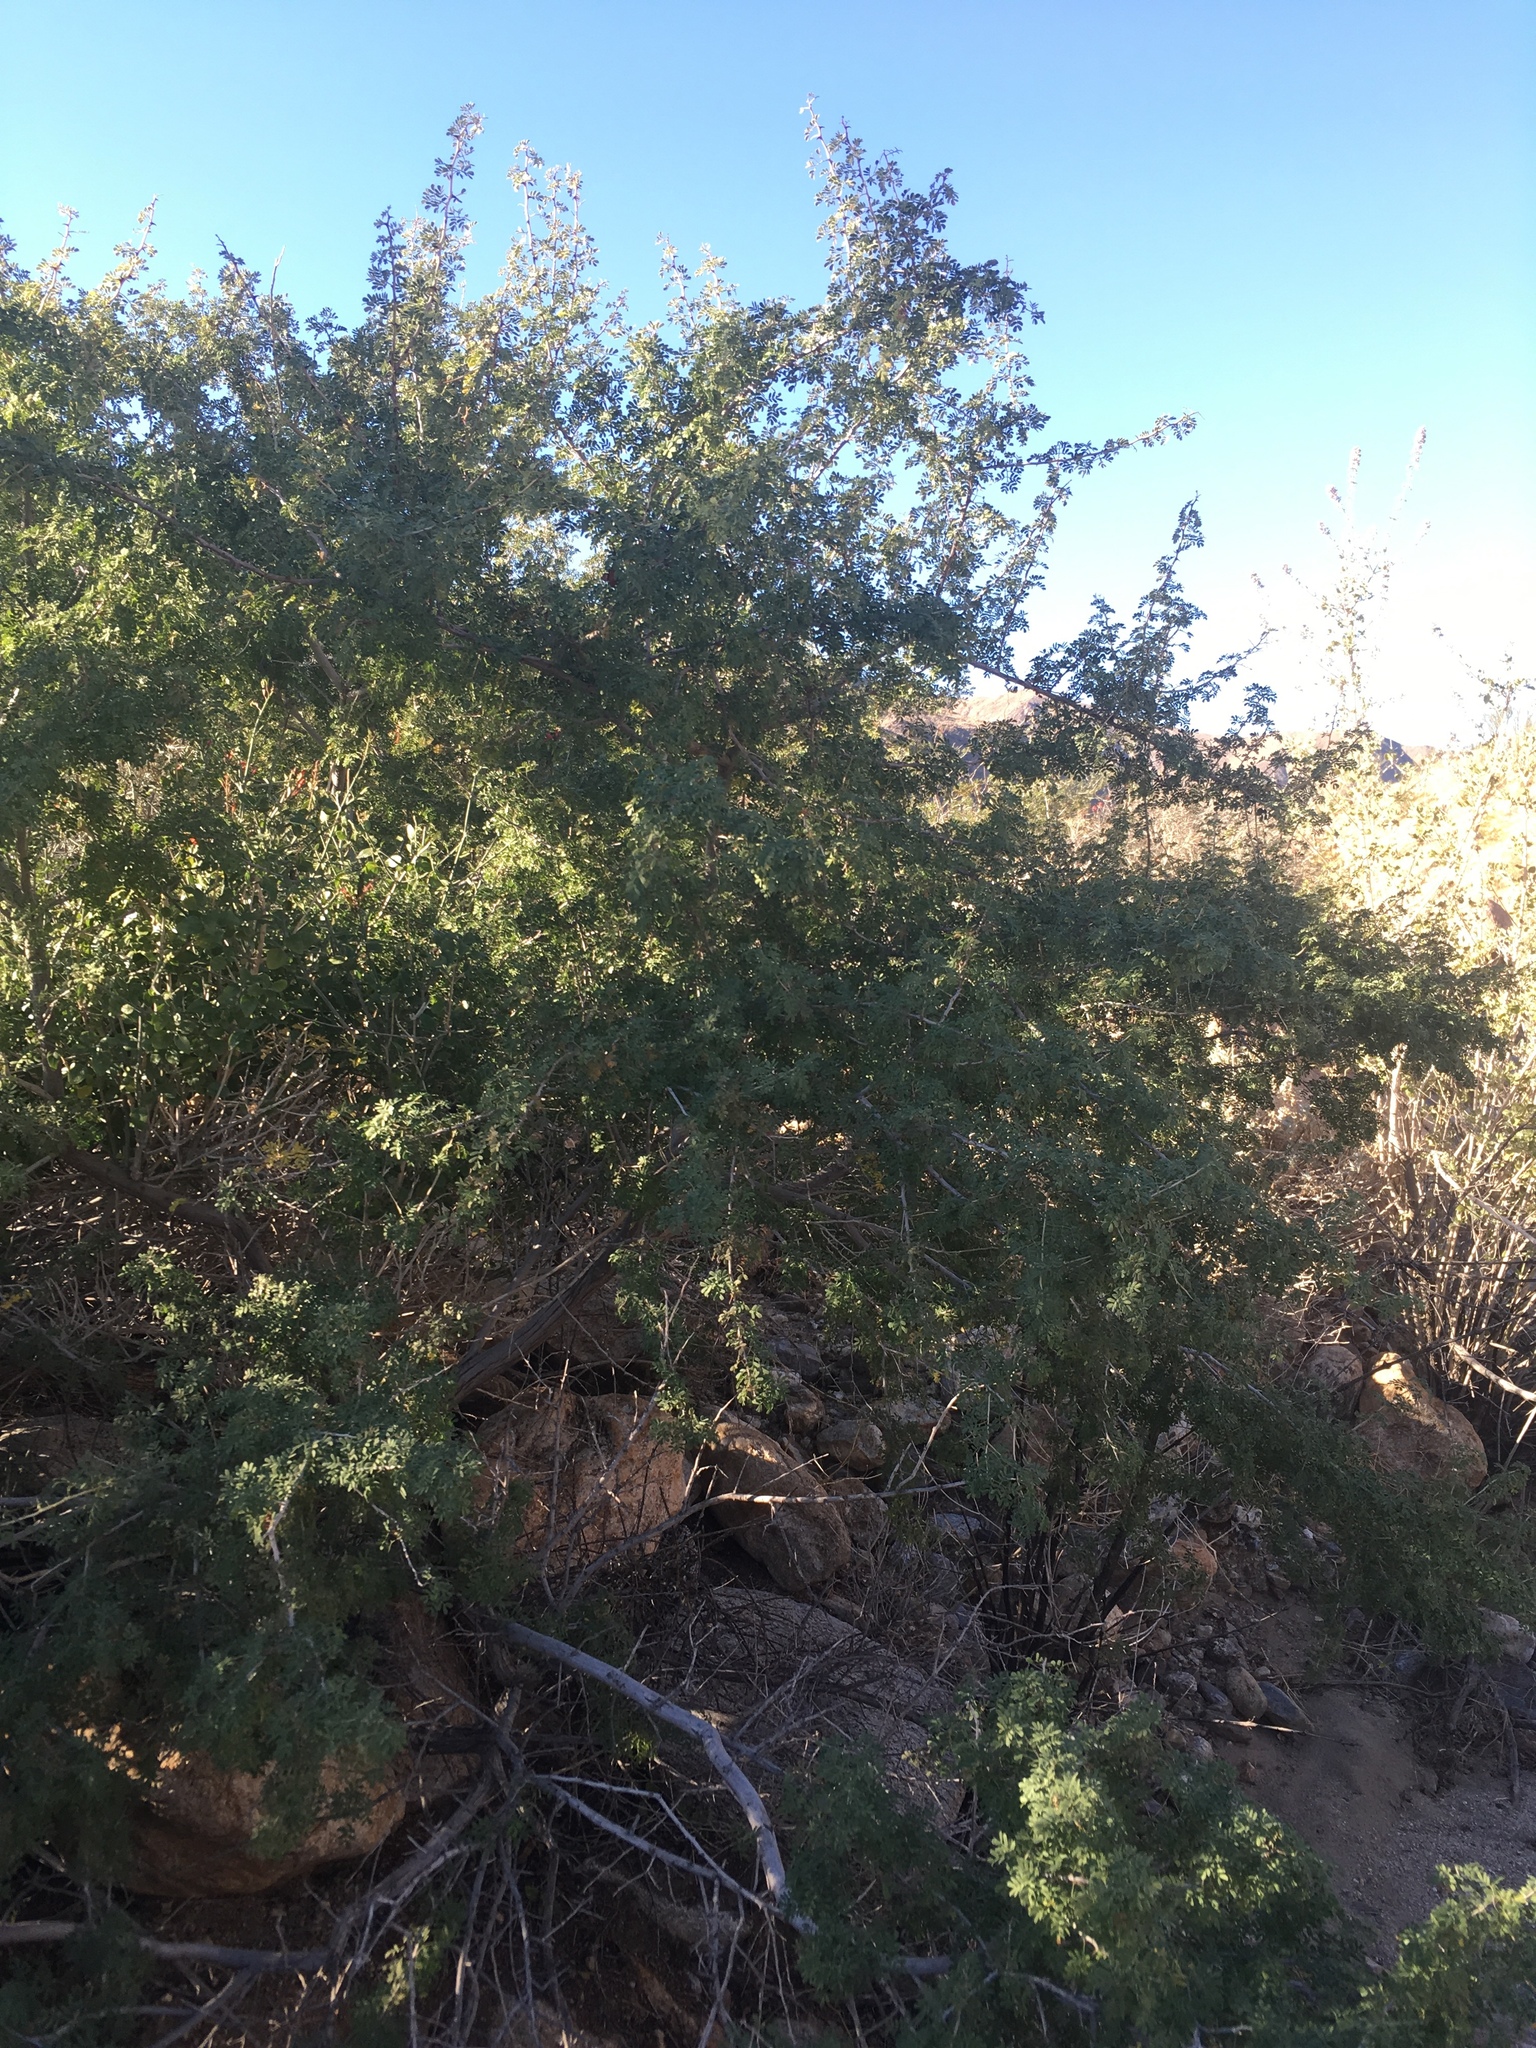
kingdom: Plantae
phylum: Tracheophyta
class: Magnoliopsida
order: Fabales
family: Fabaceae
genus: Senegalia
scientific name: Senegalia greggii
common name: Texas-mimosa
